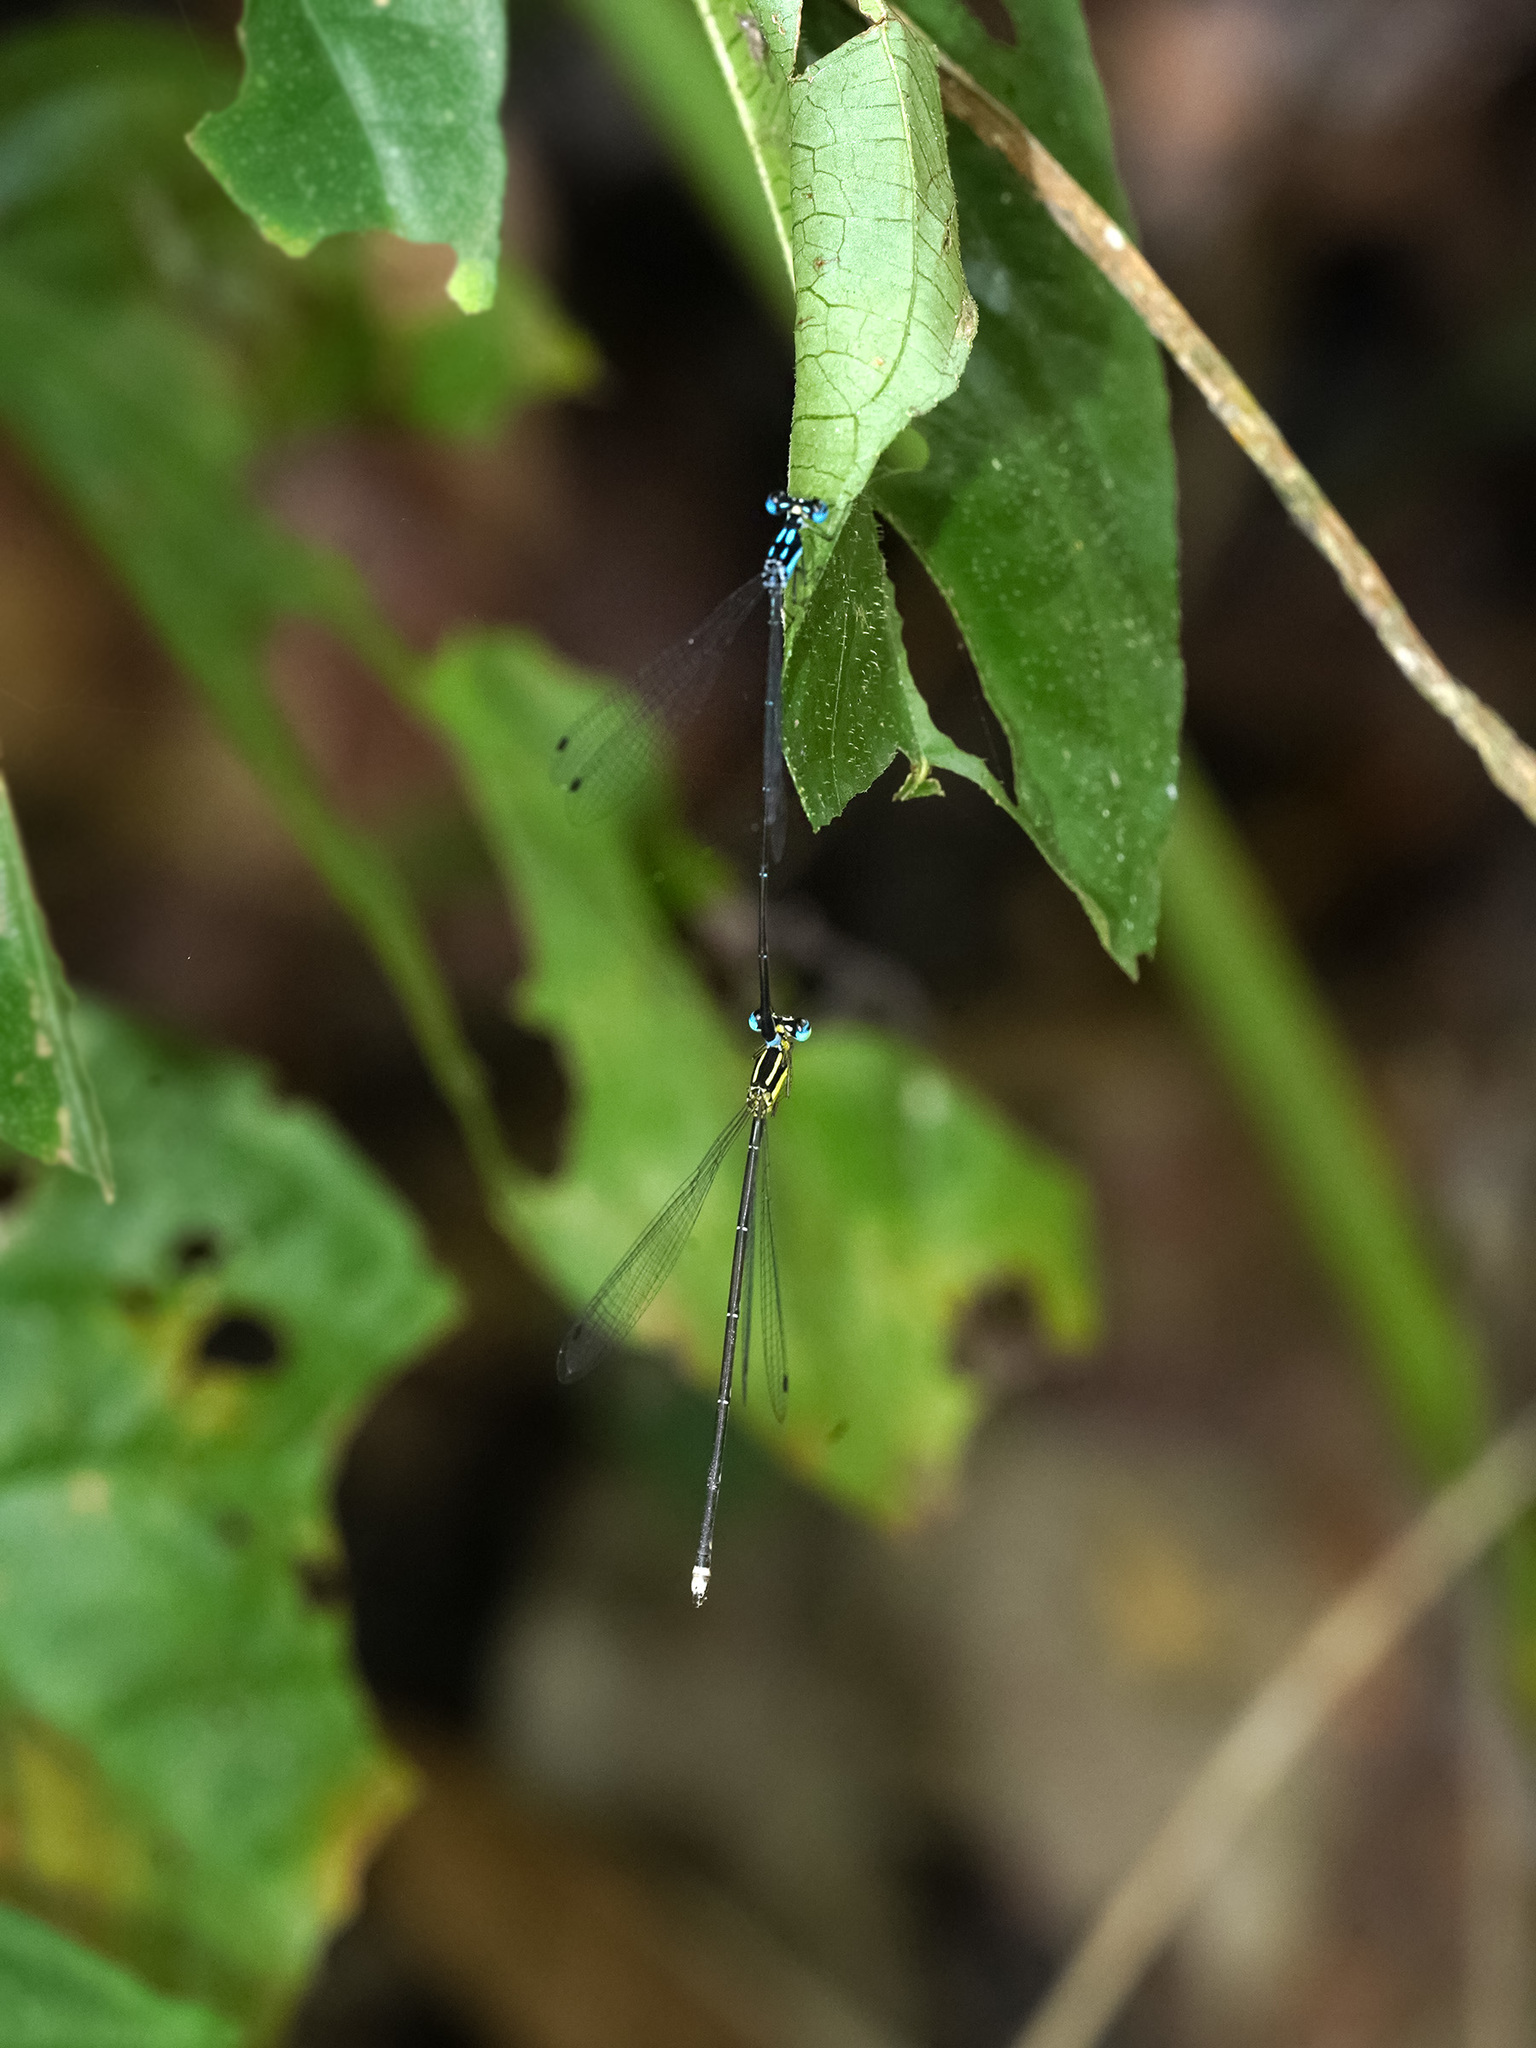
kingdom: Animalia
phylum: Arthropoda
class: Insecta
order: Odonata
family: Platycnemididae
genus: Coeliccia
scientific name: Coeliccia didyma
